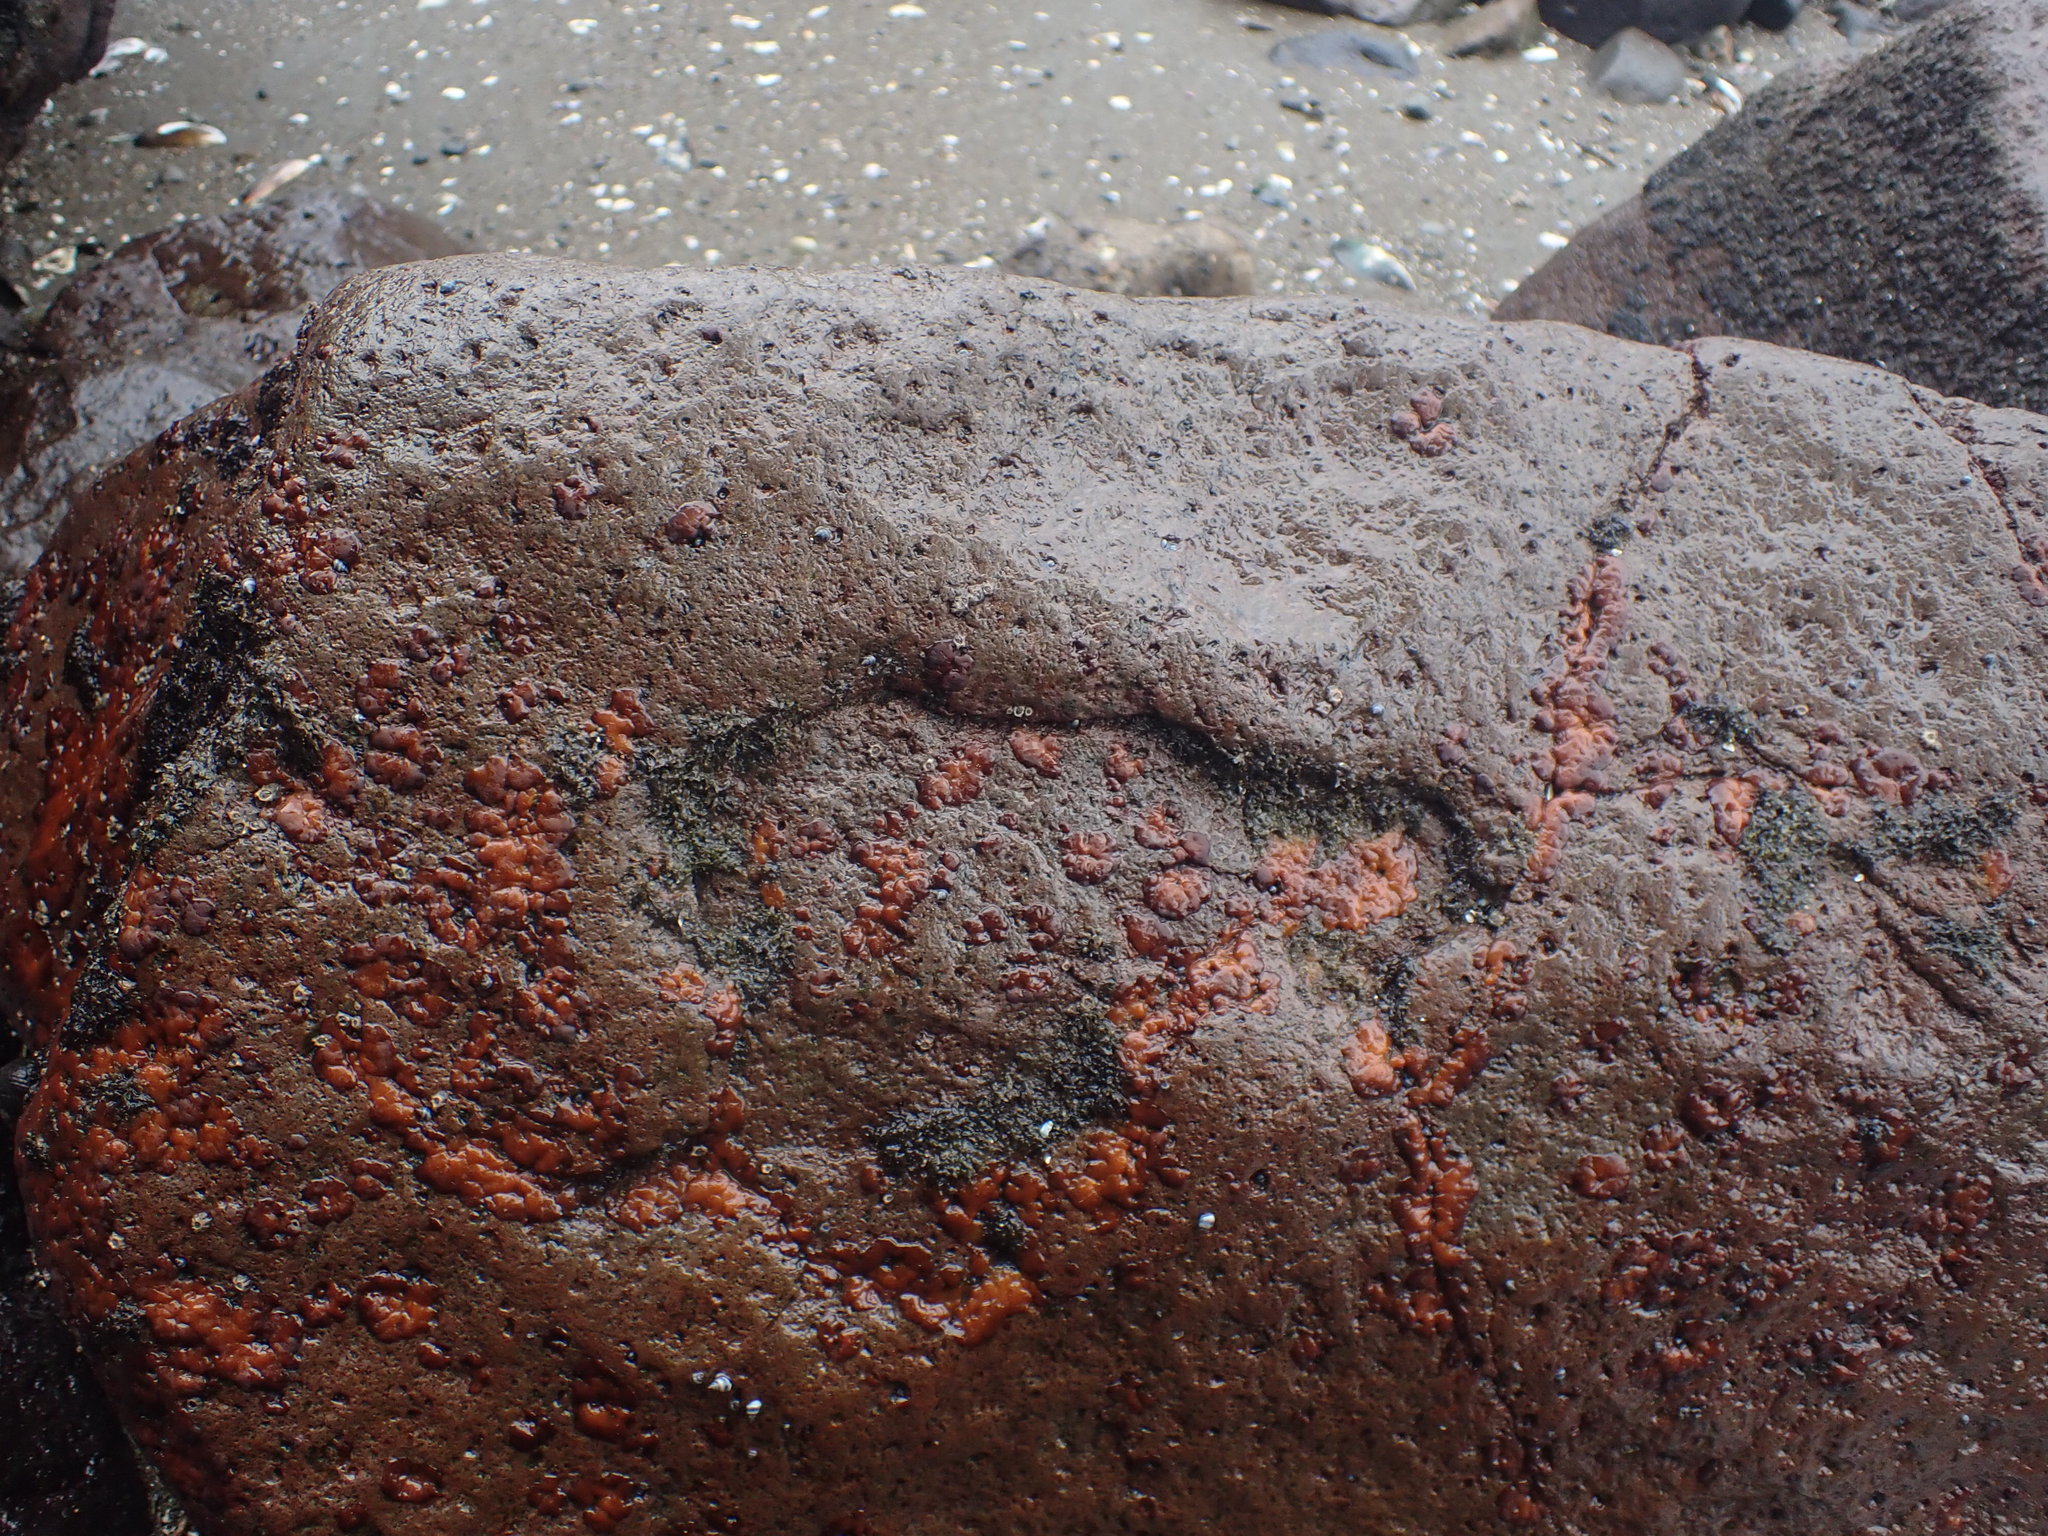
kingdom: Plantae
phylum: Rhodophyta
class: Florideophyceae
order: Hildenbrandiales
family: Hildenbrandiaceae
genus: Apophlaea
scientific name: Apophlaea
